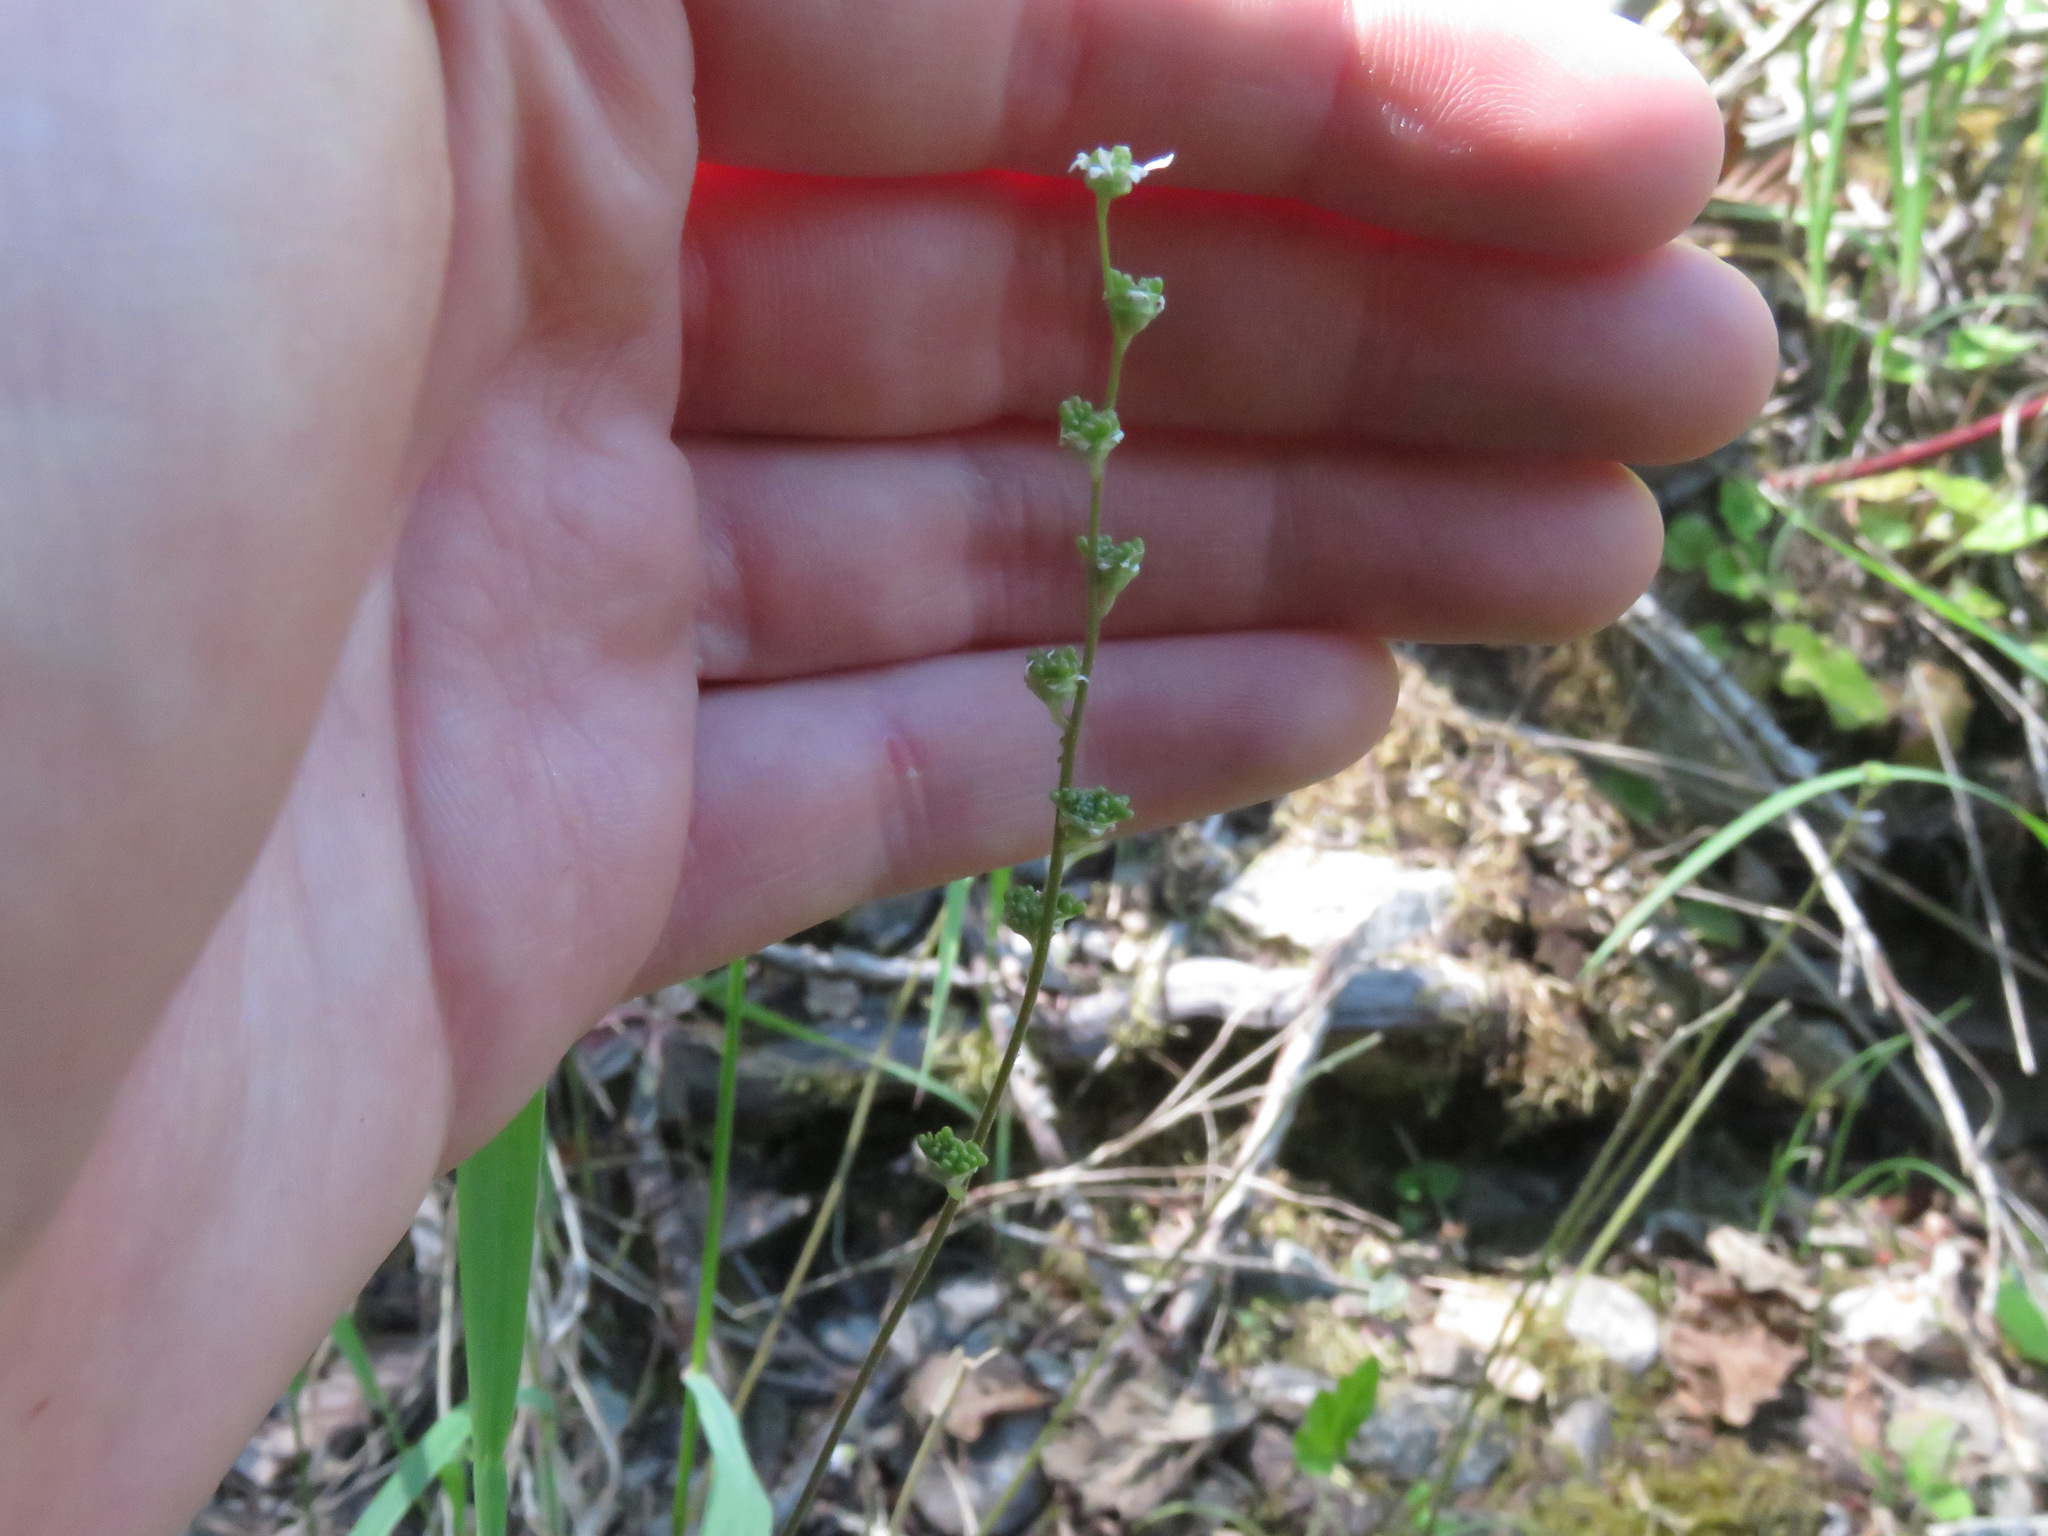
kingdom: Plantae
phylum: Tracheophyta
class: Magnoliopsida
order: Saxifragales
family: Saxifragaceae
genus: Ozomelis
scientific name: Ozomelis trifida
